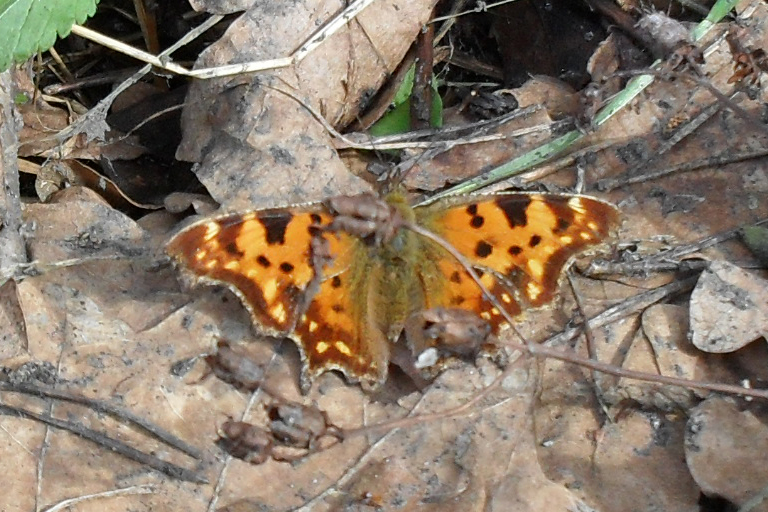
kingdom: Animalia
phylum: Arthropoda
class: Insecta
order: Lepidoptera
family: Nymphalidae
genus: Polygonia
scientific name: Polygonia c-album
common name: Comma
